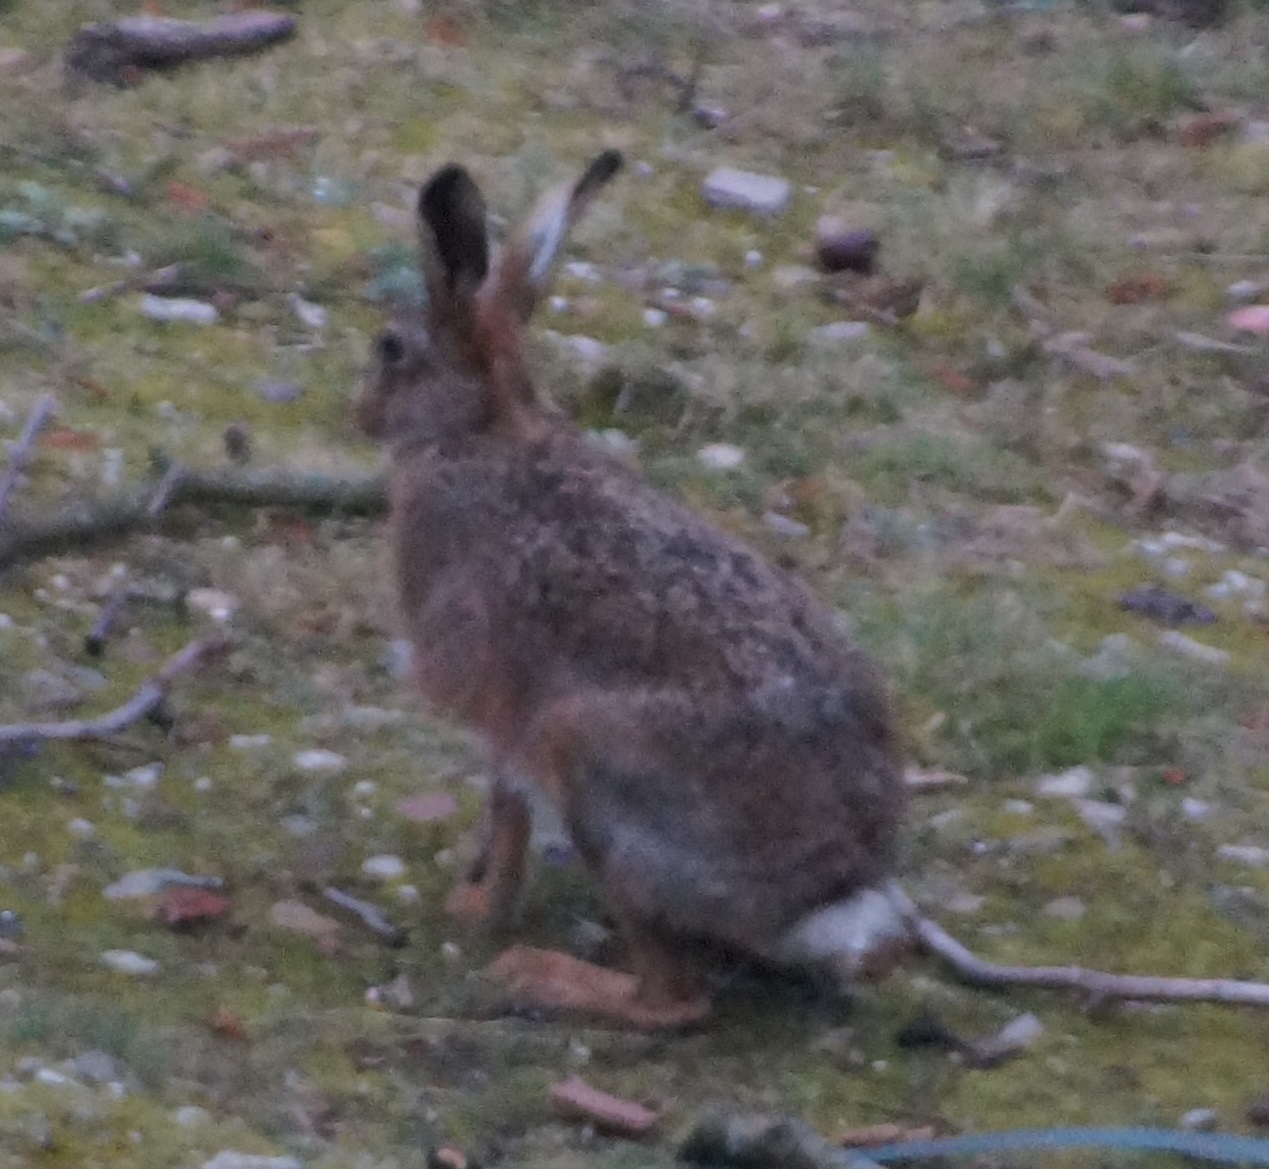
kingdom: Animalia
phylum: Chordata
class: Mammalia
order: Lagomorpha
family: Leporidae
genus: Lepus
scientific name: Lepus europaeus
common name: European hare
